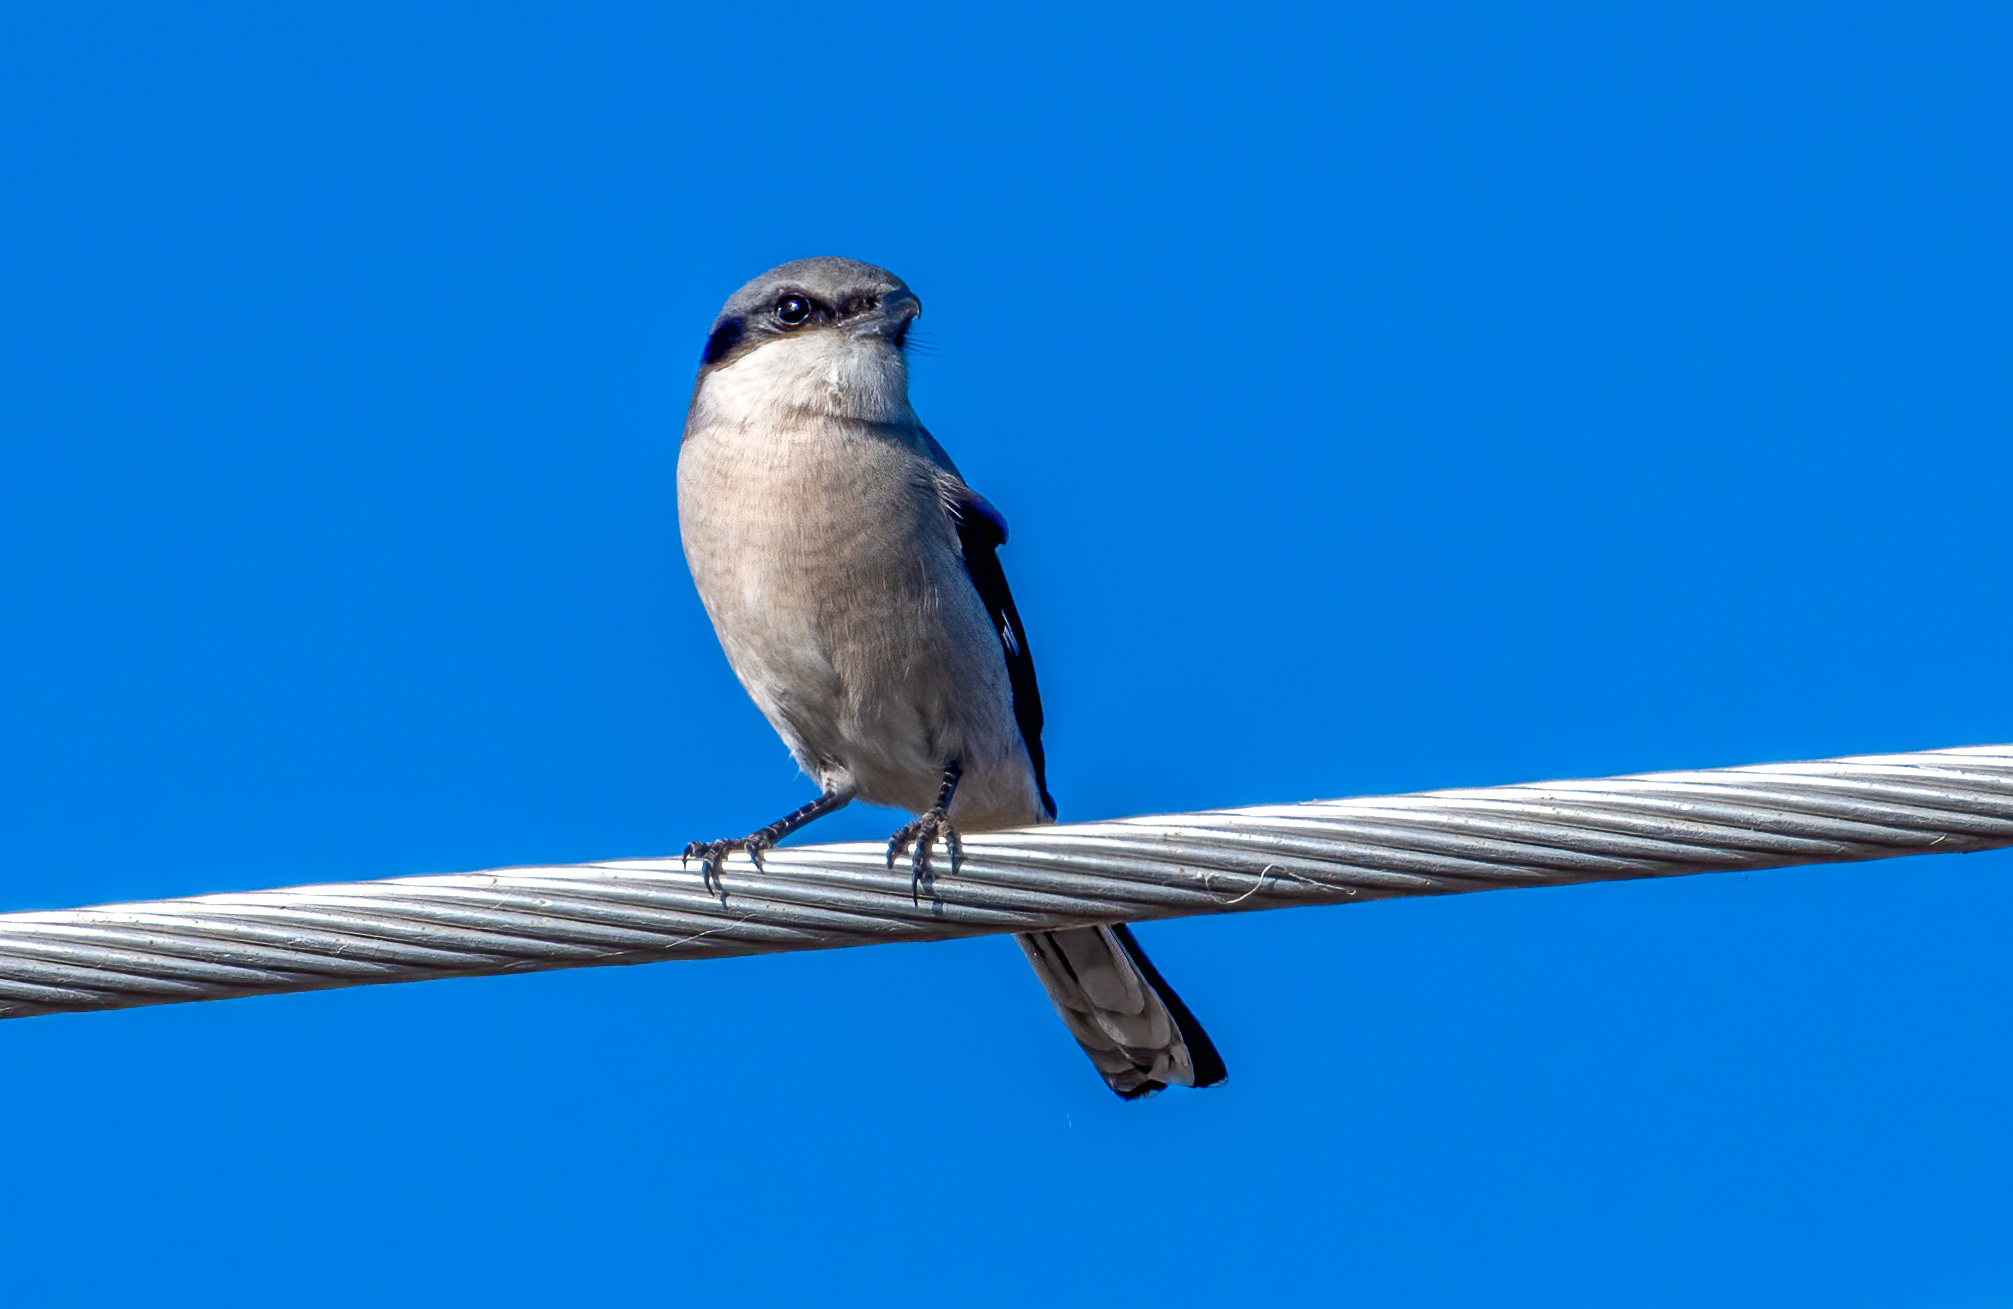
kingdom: Animalia
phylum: Chordata
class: Aves
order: Passeriformes
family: Laniidae
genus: Lanius
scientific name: Lanius ludovicianus
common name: Loggerhead shrike
